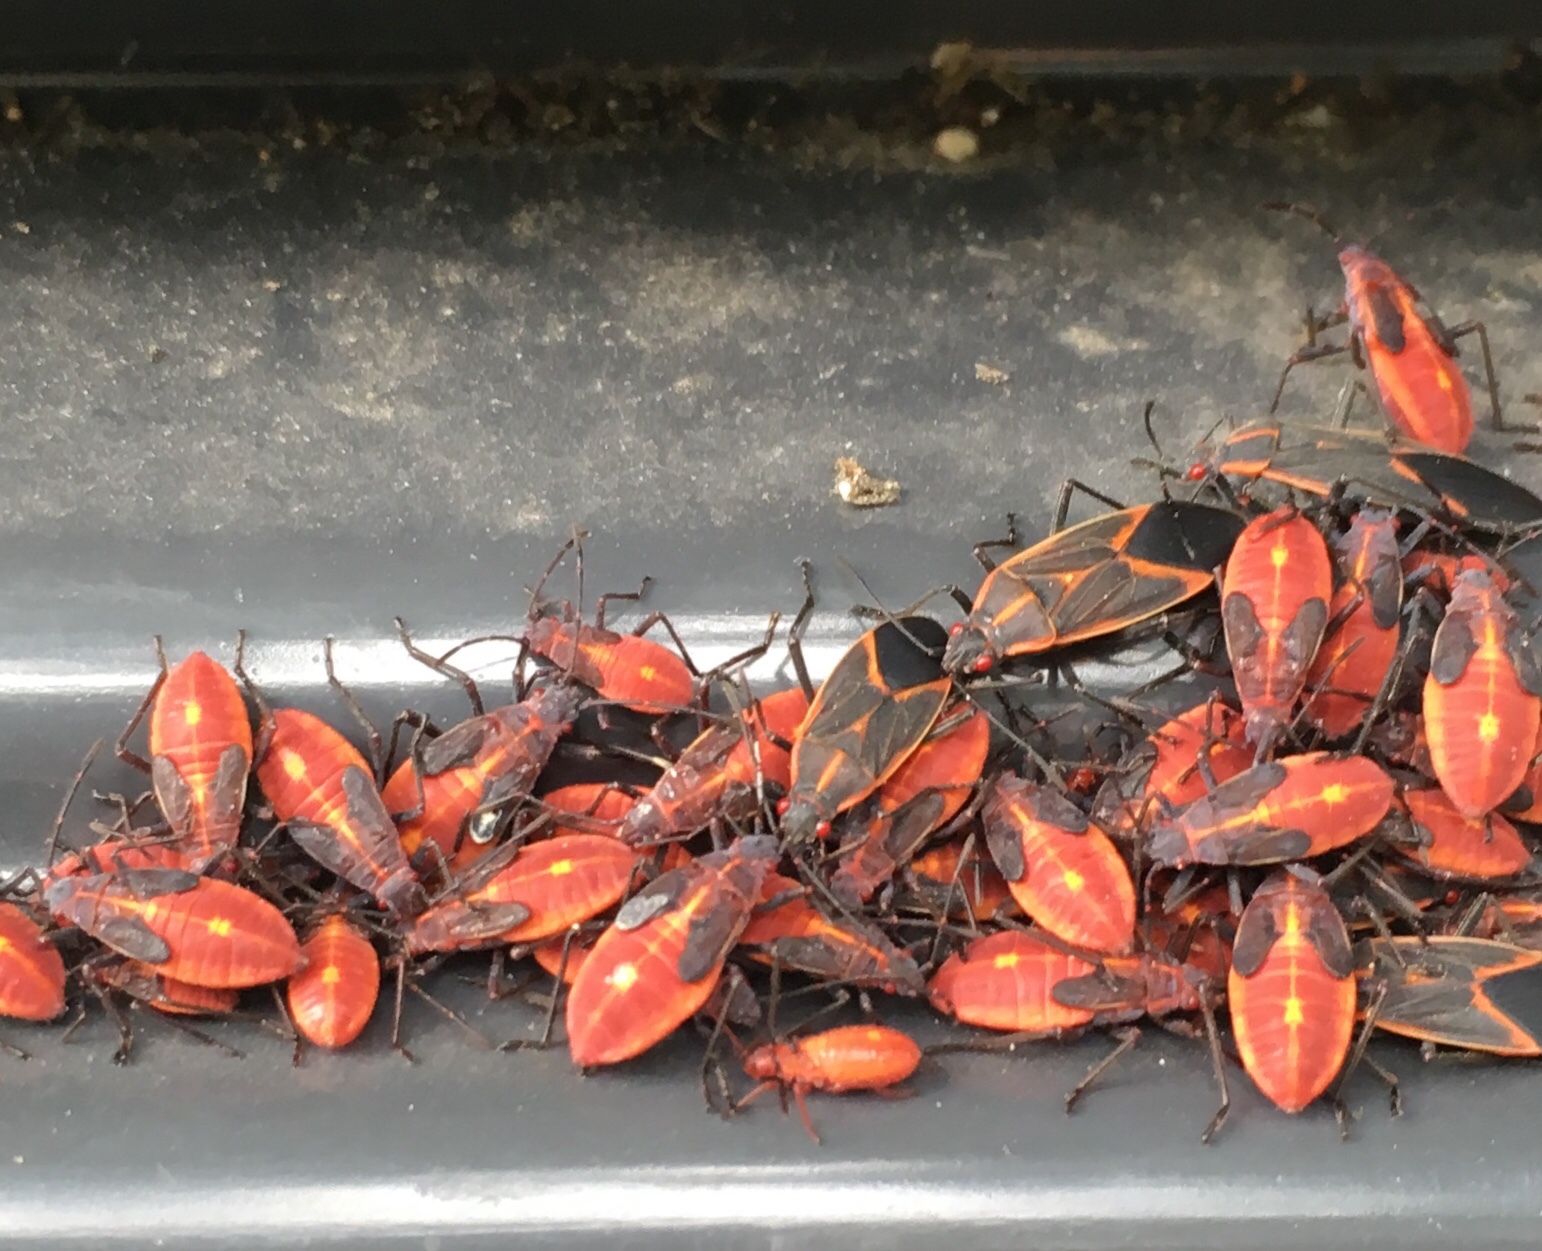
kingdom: Animalia
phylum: Arthropoda
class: Insecta
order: Hemiptera
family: Rhopalidae
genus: Boisea
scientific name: Boisea trivittata
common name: Boxelder bug
